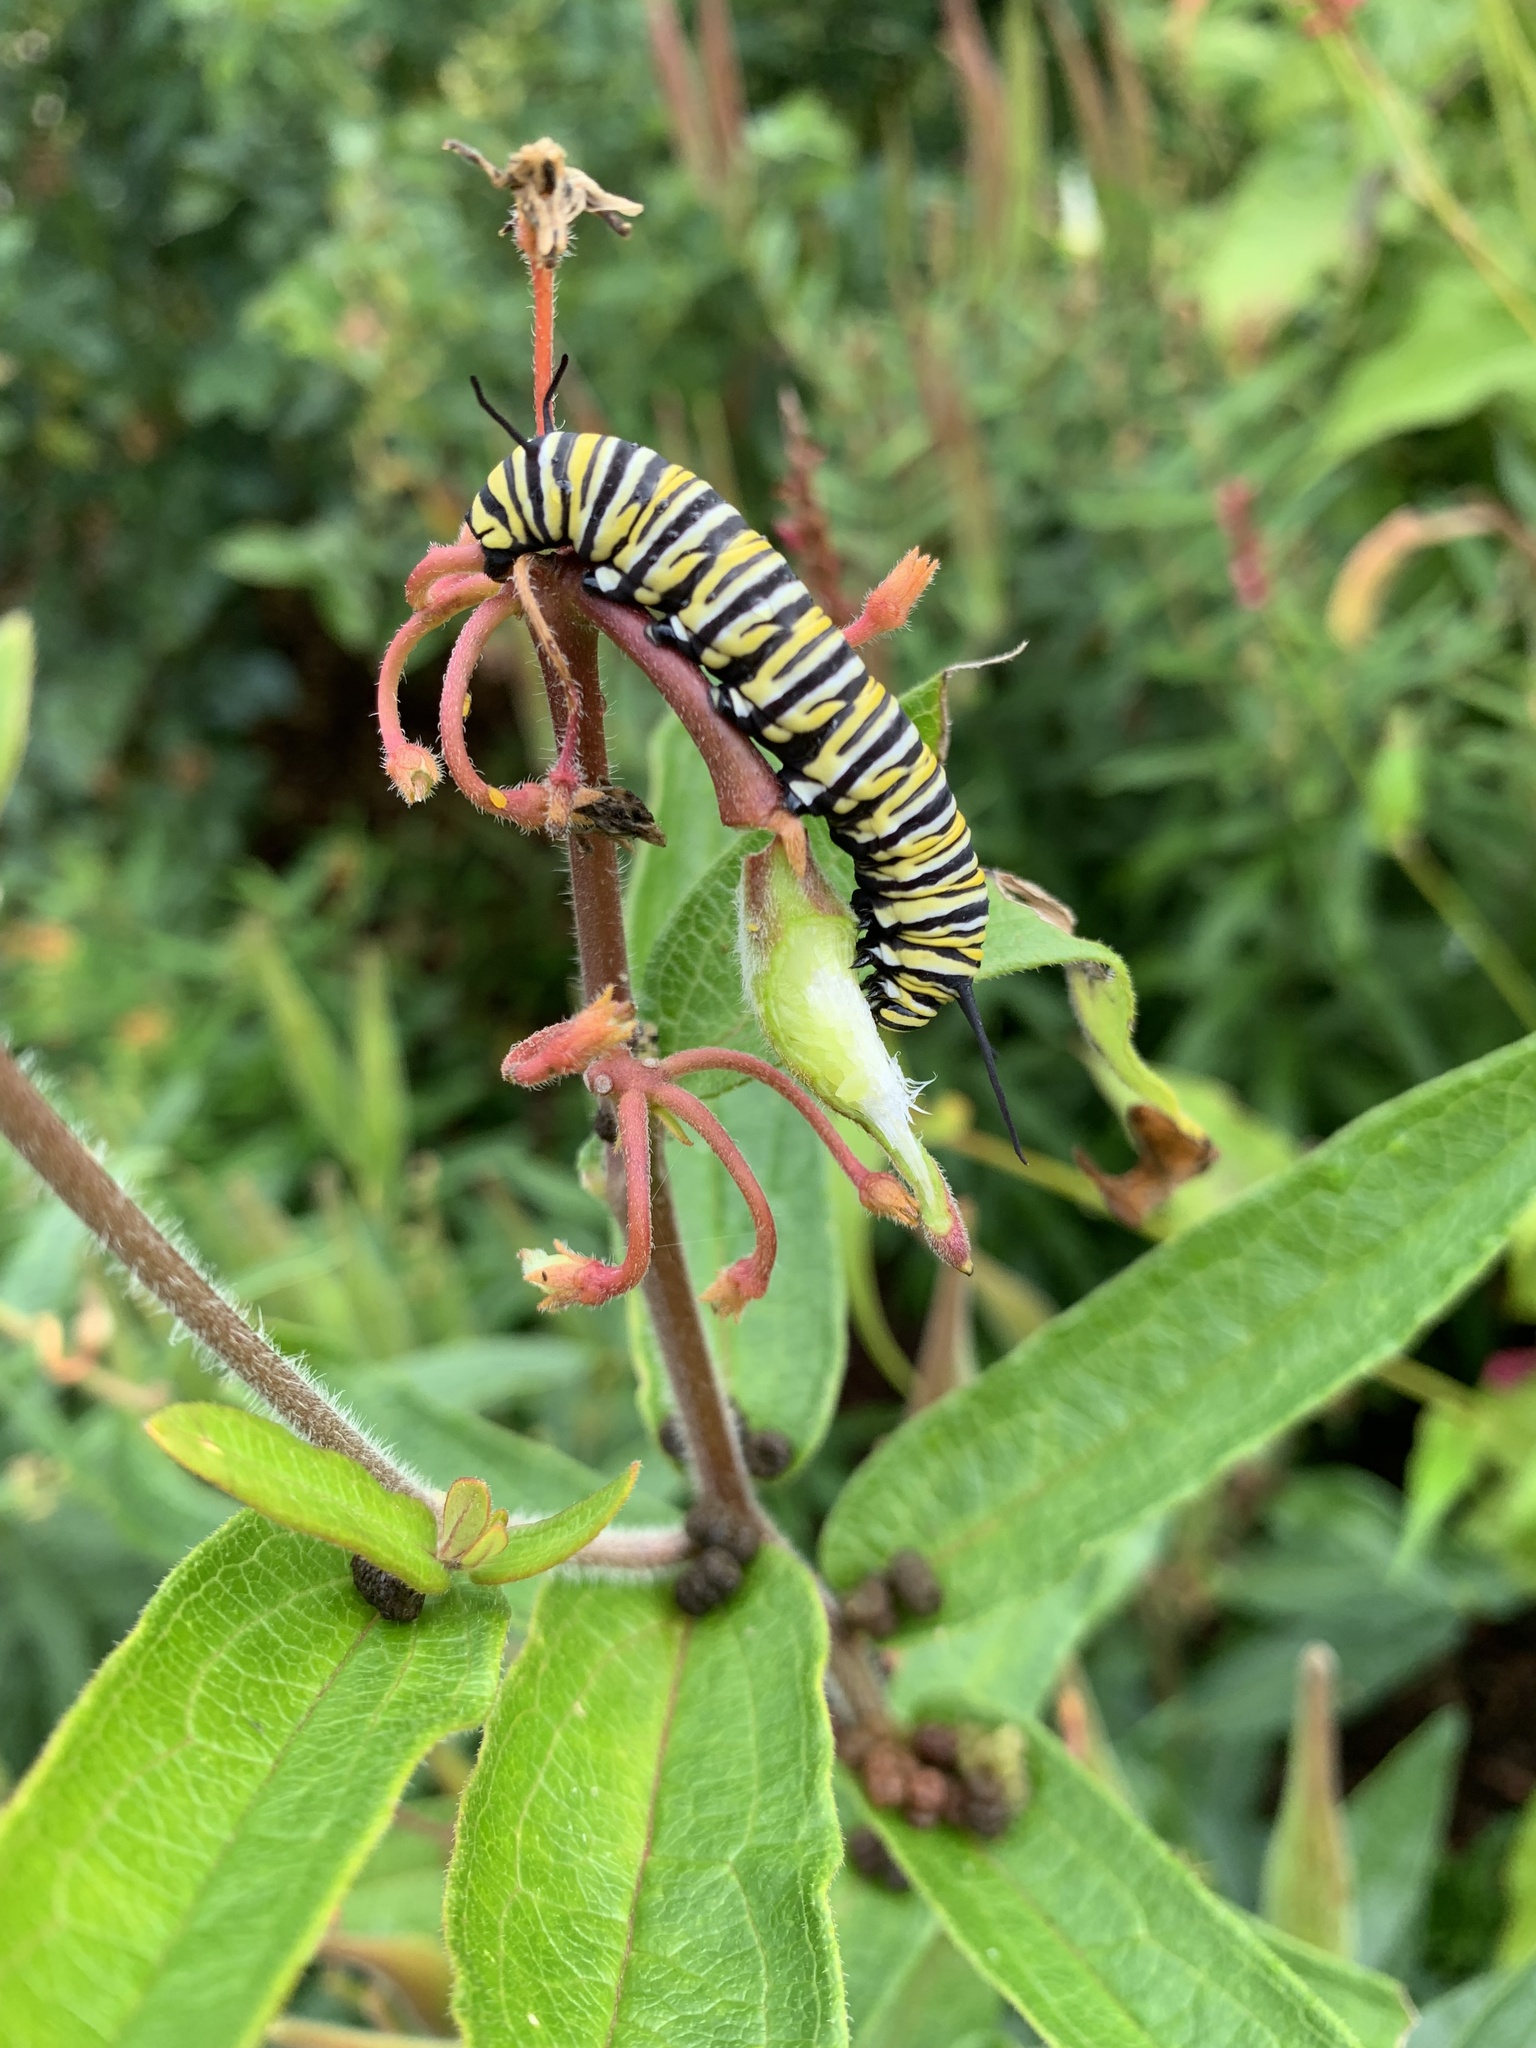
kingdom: Animalia
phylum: Arthropoda
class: Insecta
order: Lepidoptera
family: Nymphalidae
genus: Danaus
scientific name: Danaus plexippus
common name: Monarch
